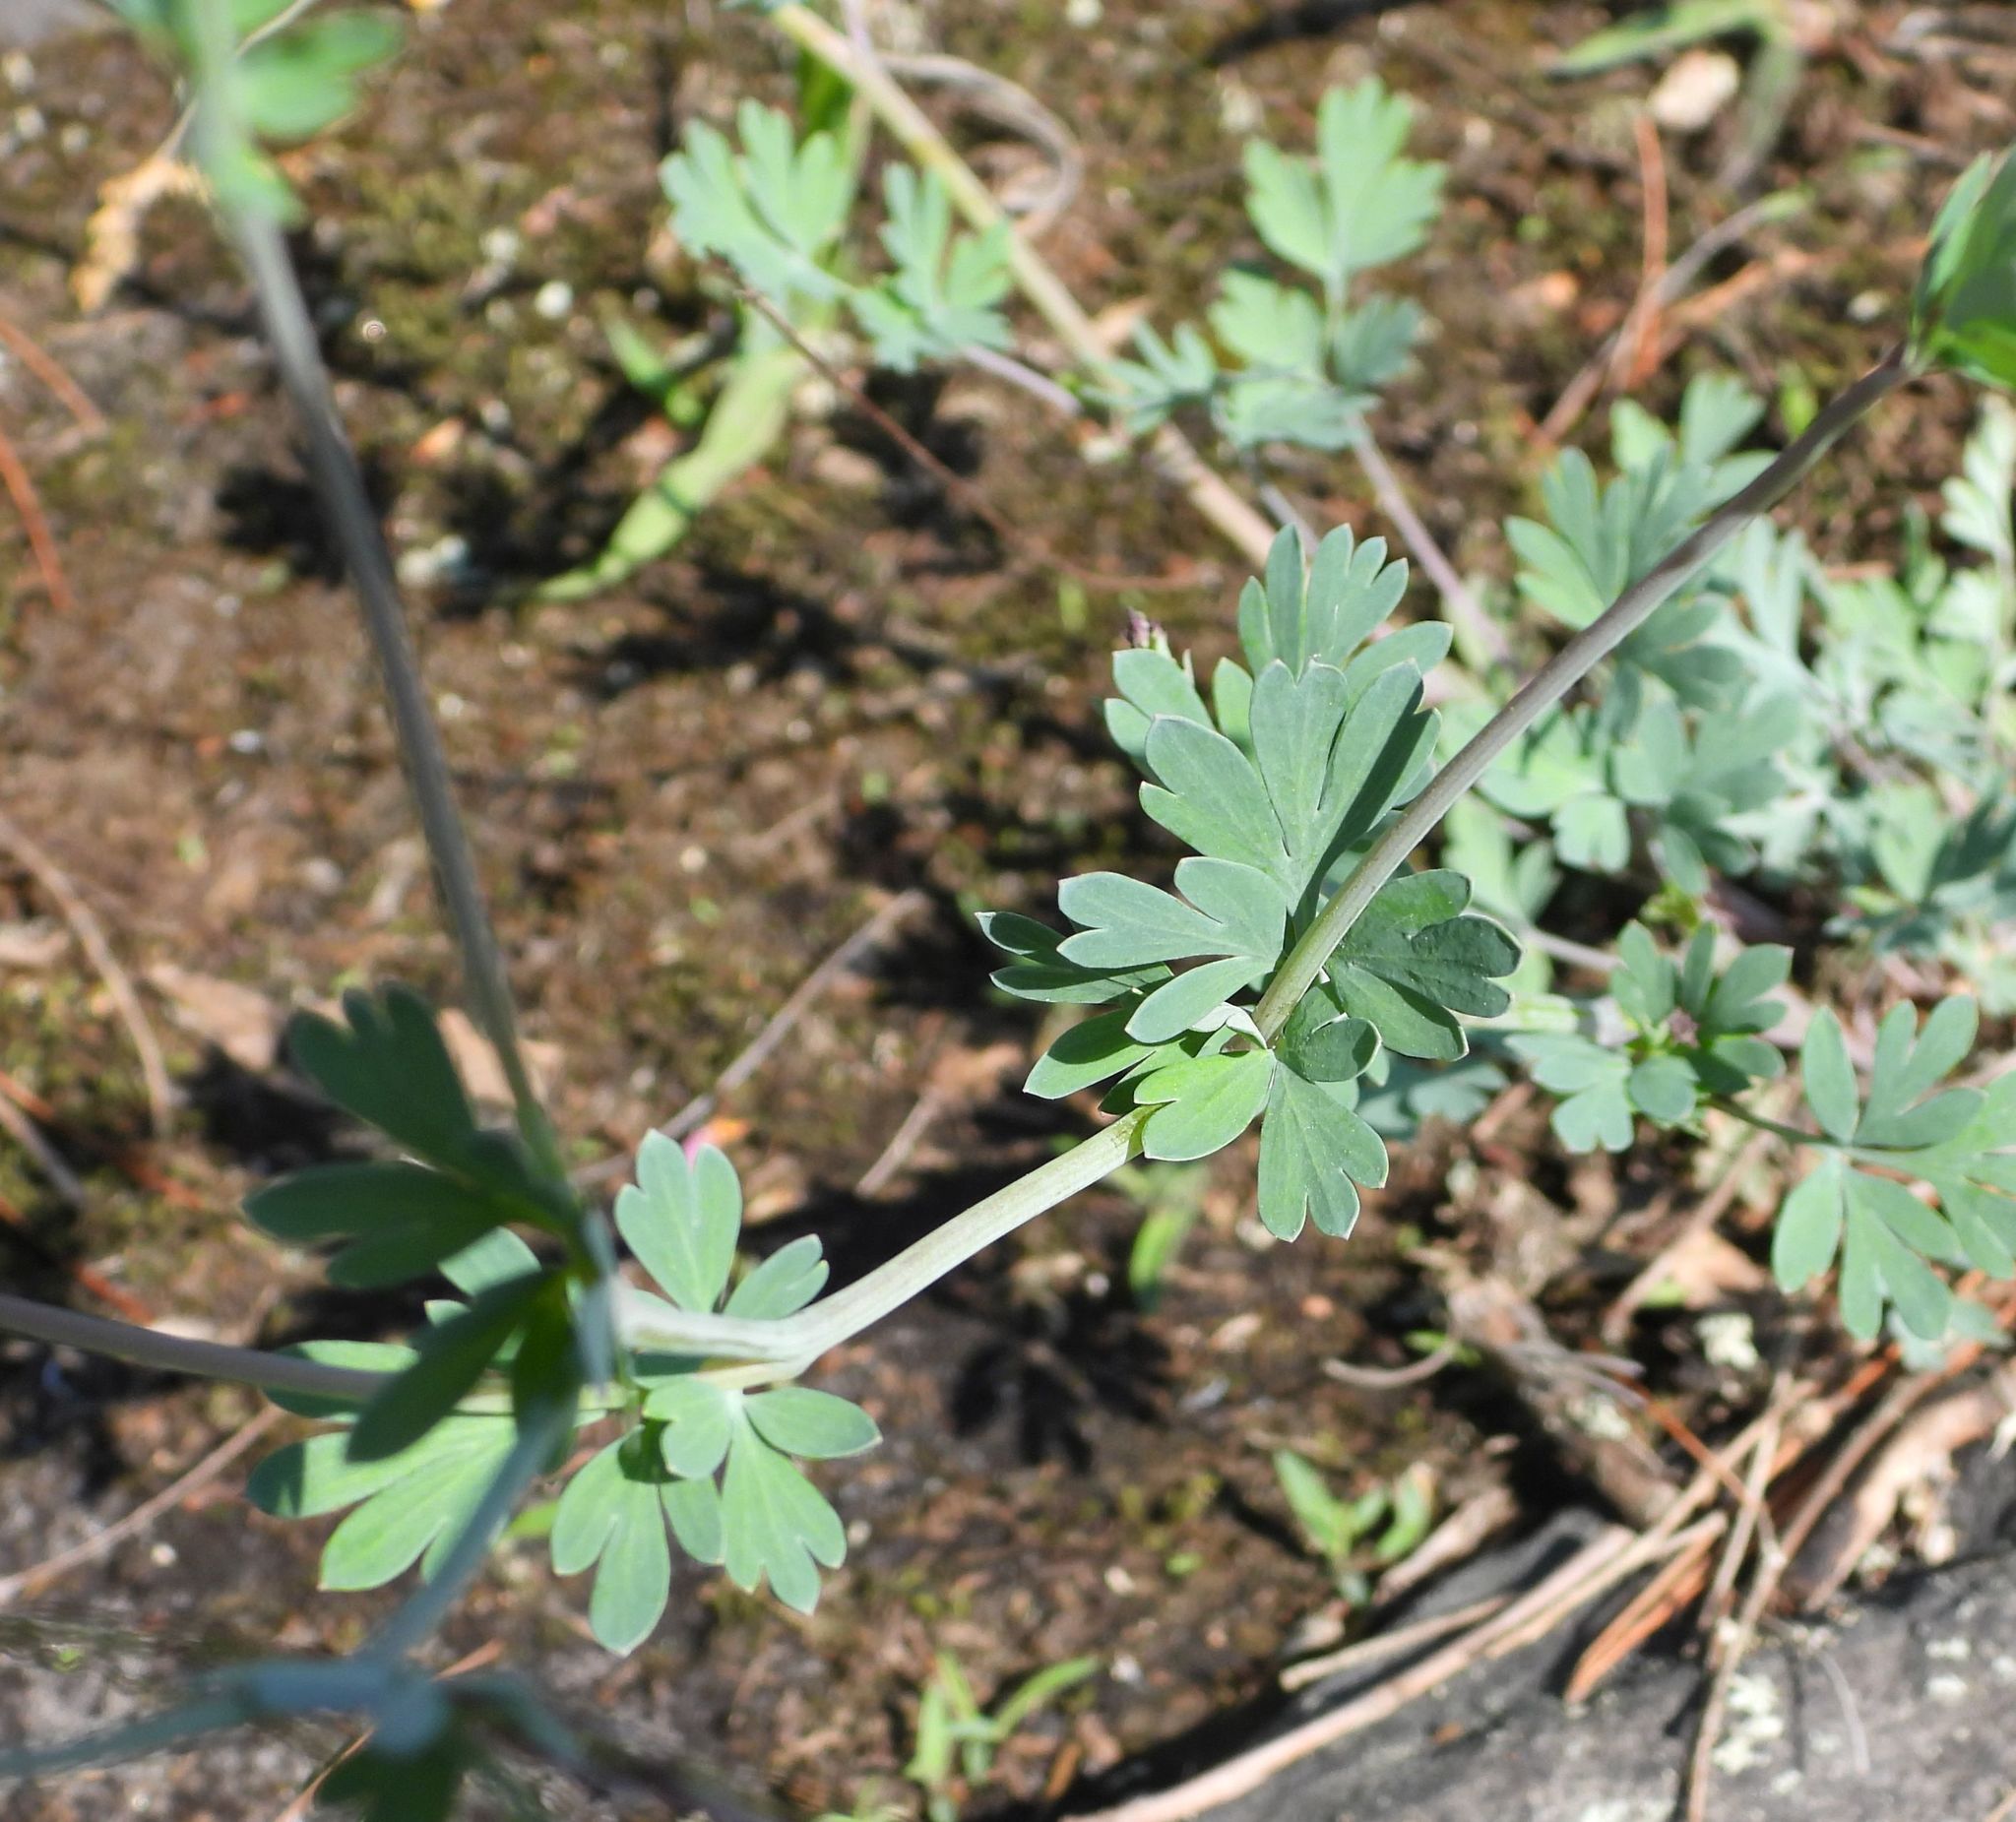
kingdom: Plantae
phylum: Tracheophyta
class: Magnoliopsida
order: Ranunculales
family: Papaveraceae
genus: Capnoides
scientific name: Capnoides sempervirens
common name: Rock harlequin
